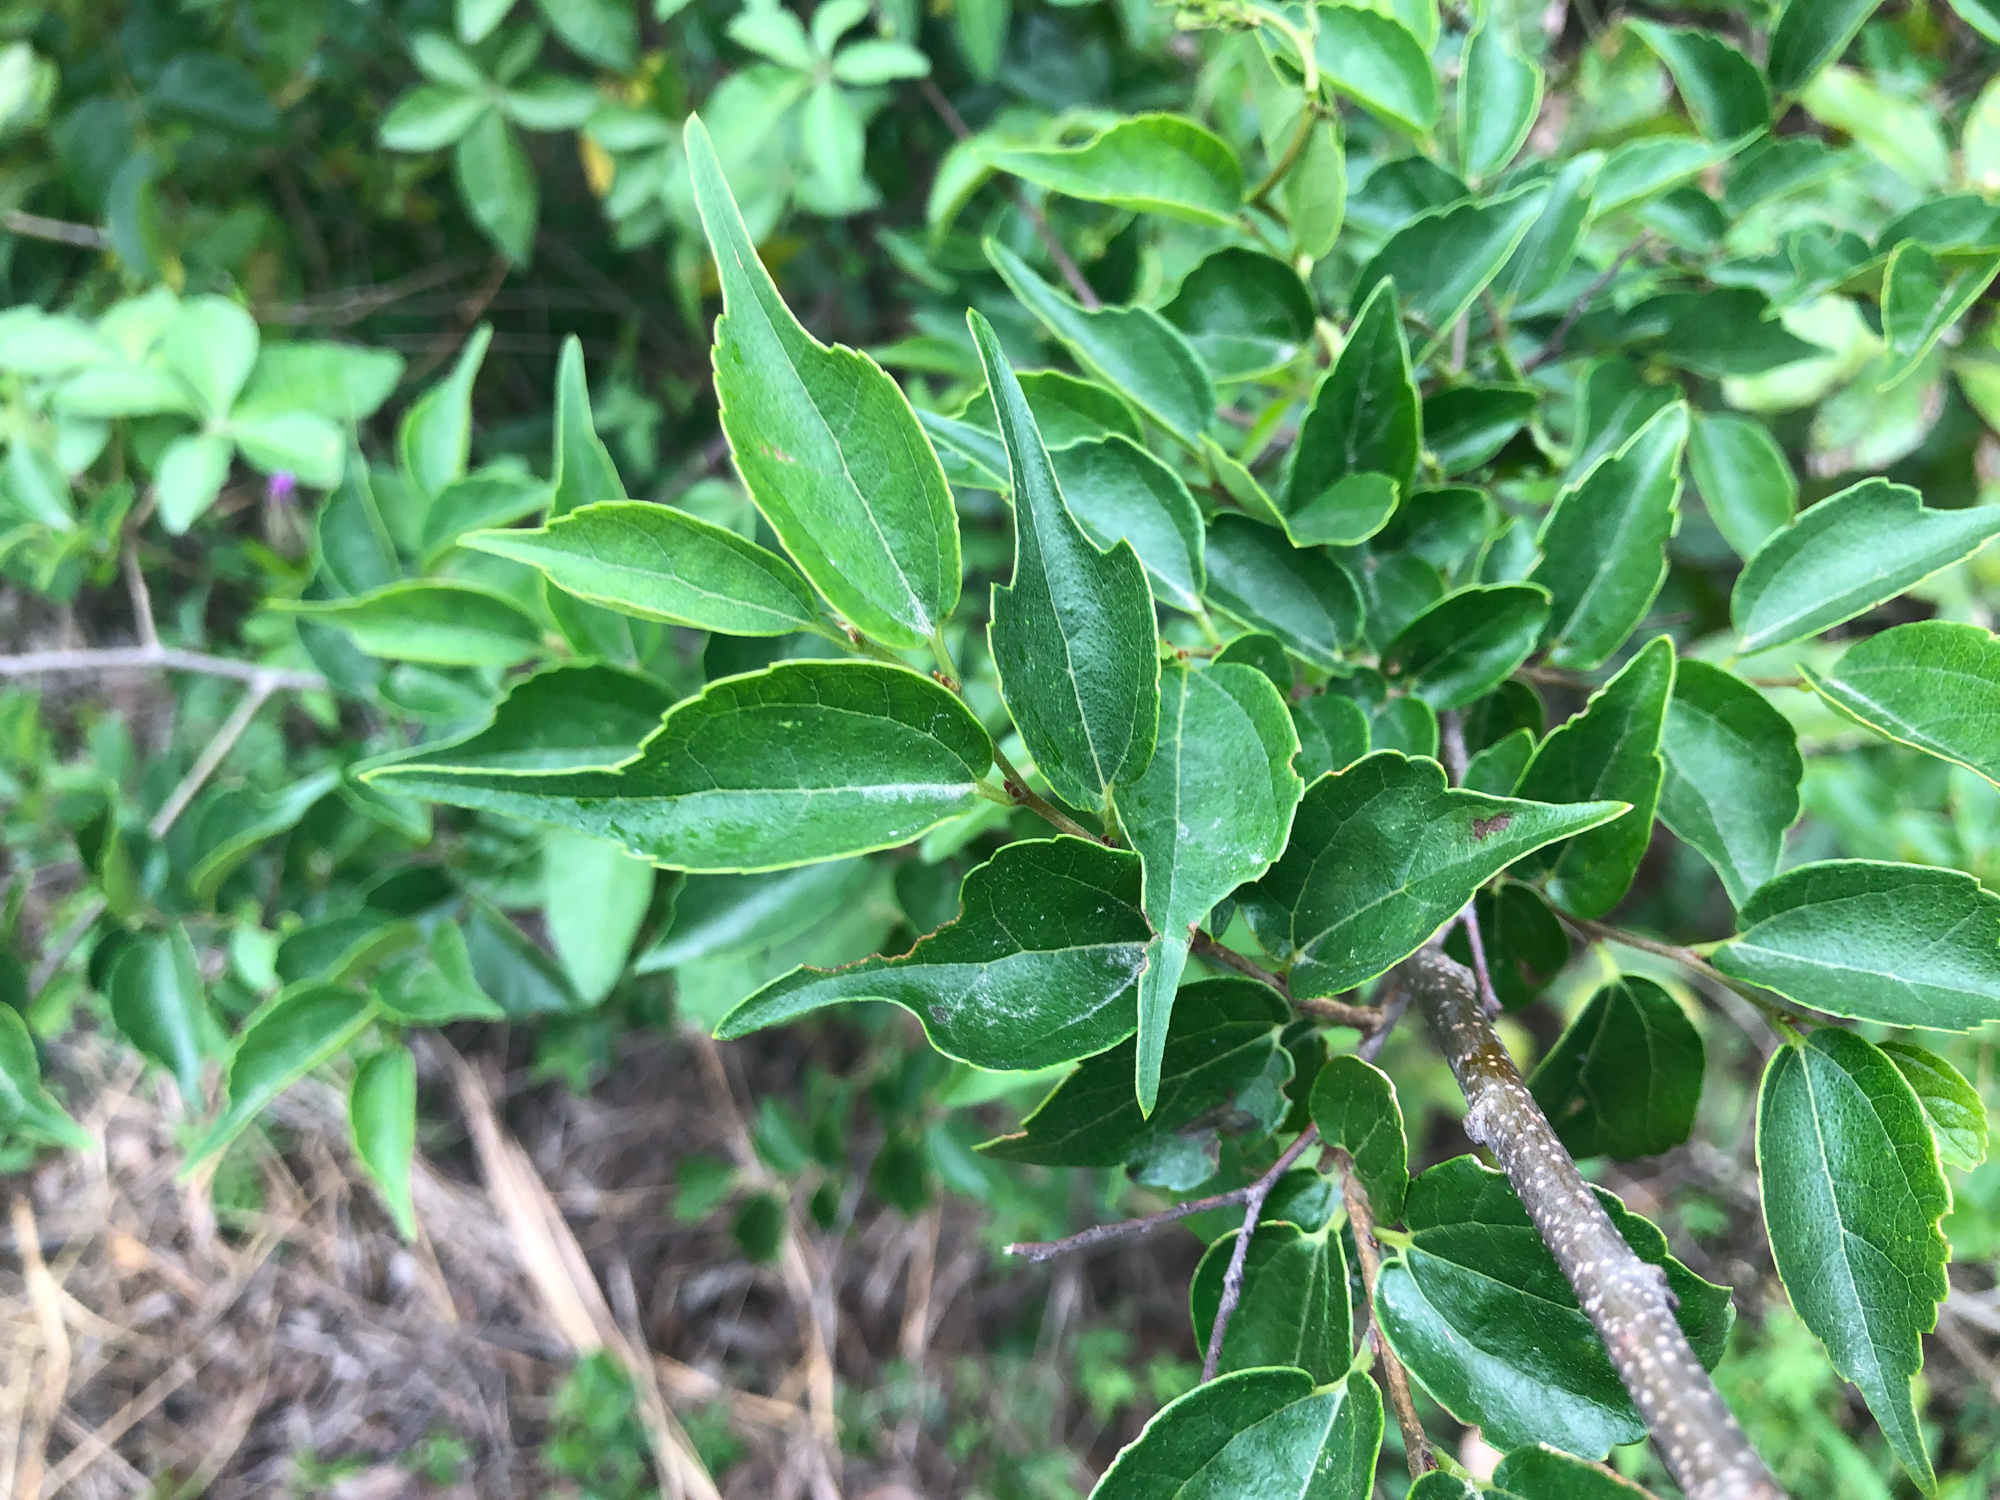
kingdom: Plantae
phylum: Tracheophyta
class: Magnoliopsida
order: Rosales
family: Cannabaceae
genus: Celtis
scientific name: Celtis biondii
